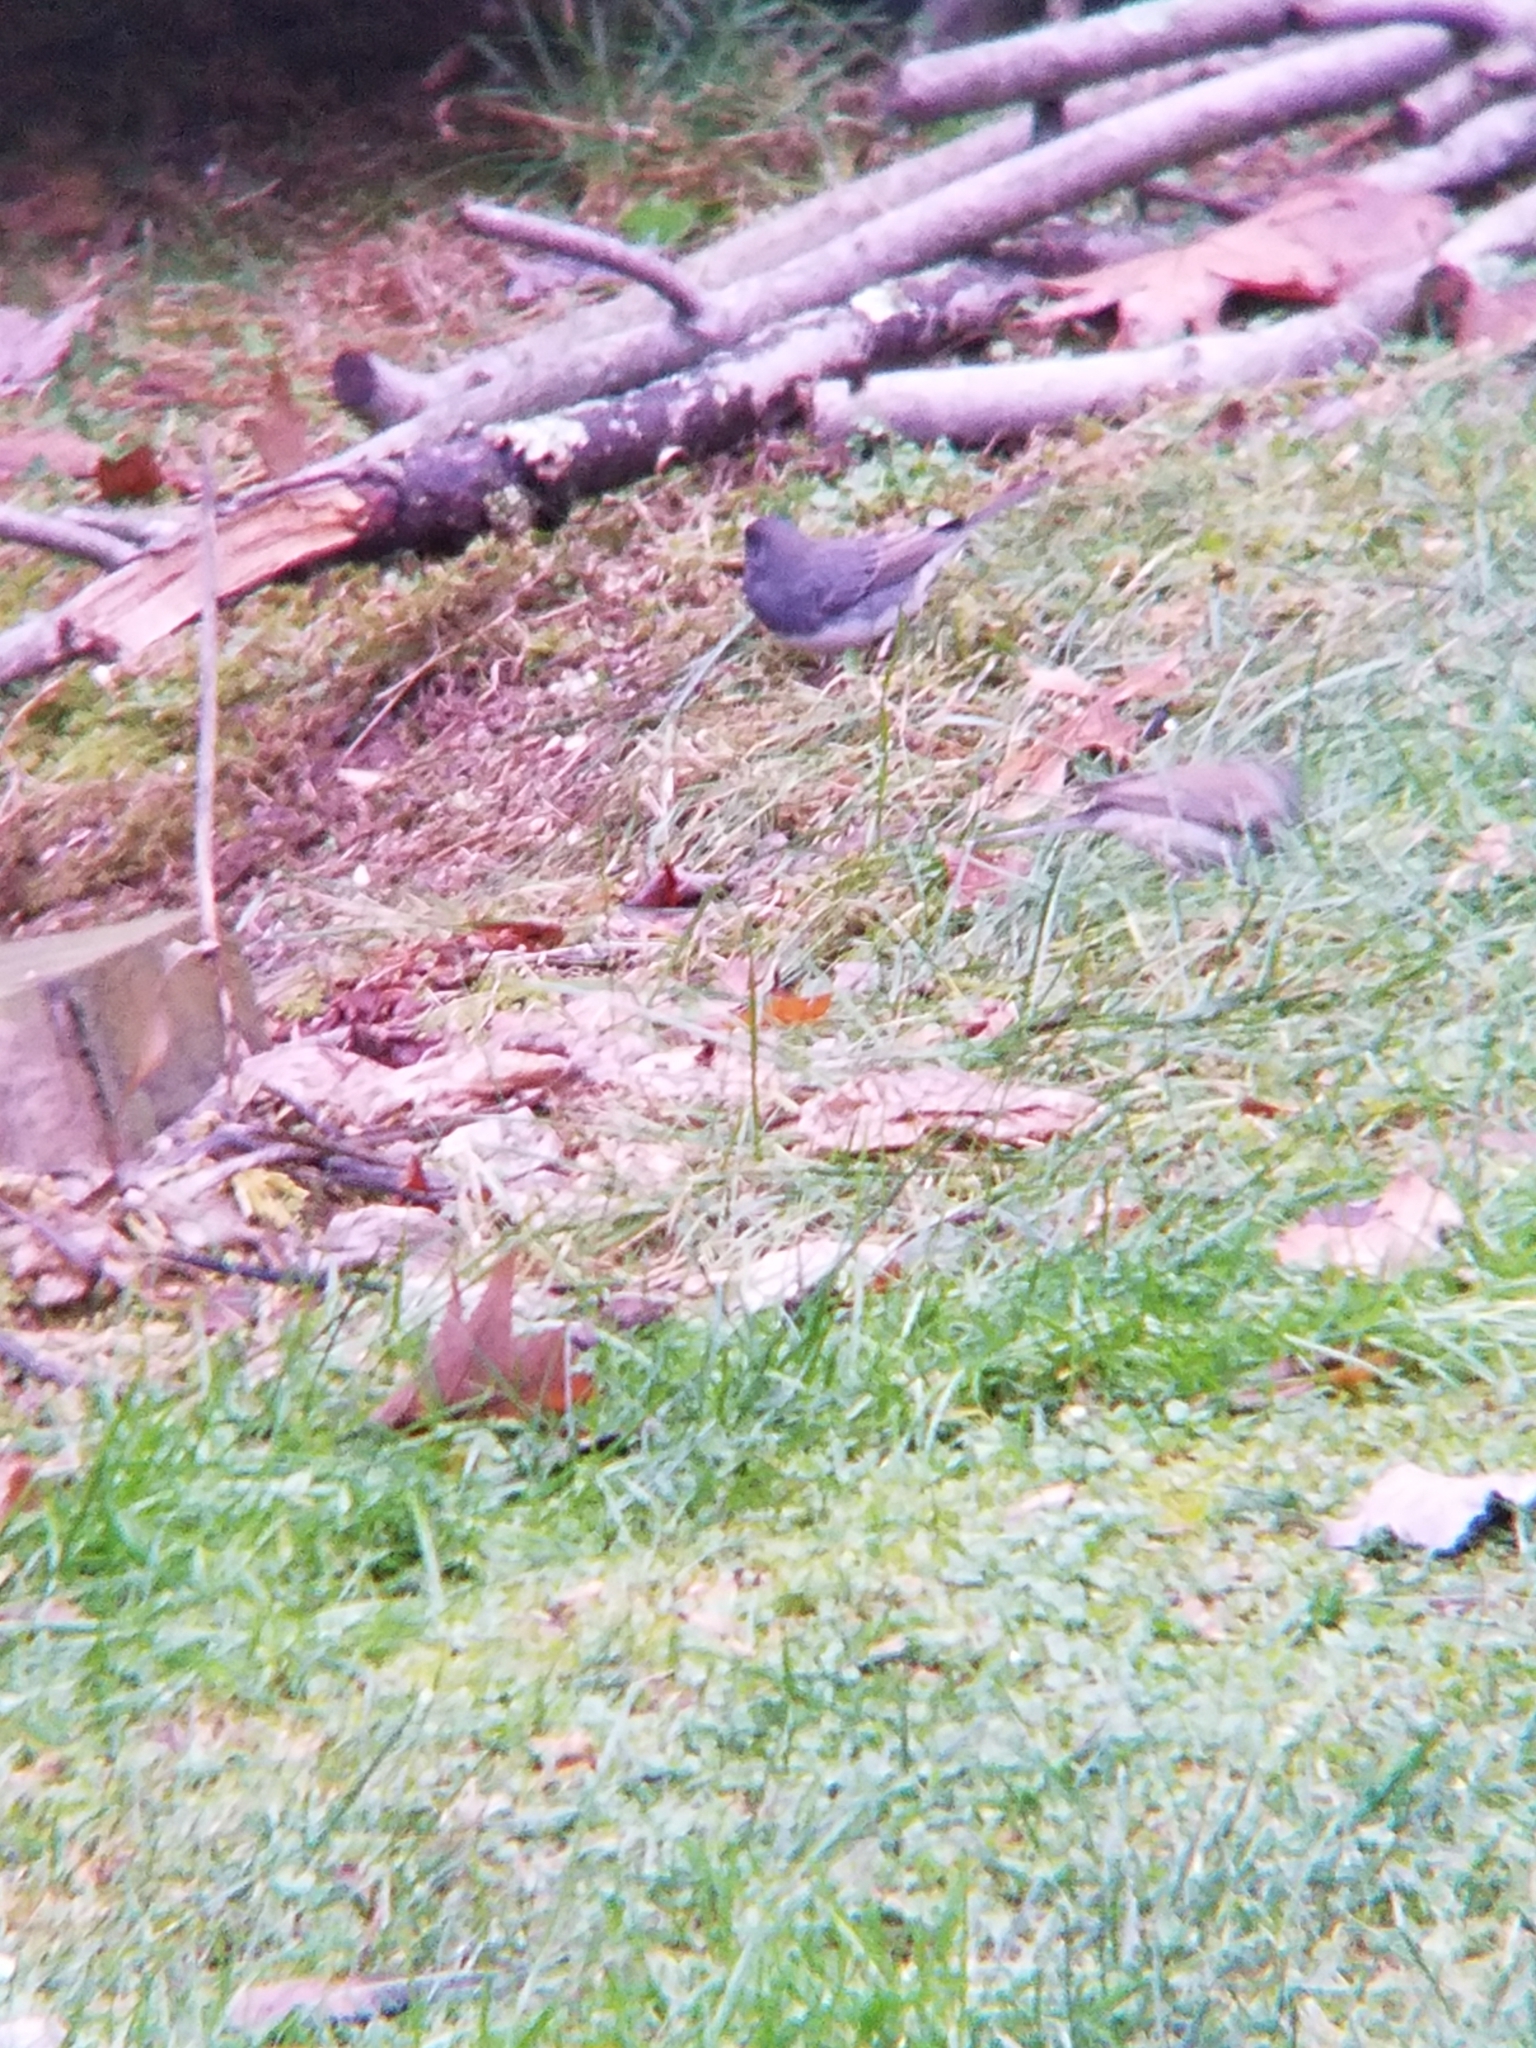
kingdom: Animalia
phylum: Chordata
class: Aves
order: Passeriformes
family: Passerellidae
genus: Junco
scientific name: Junco hyemalis
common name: Dark-eyed junco
